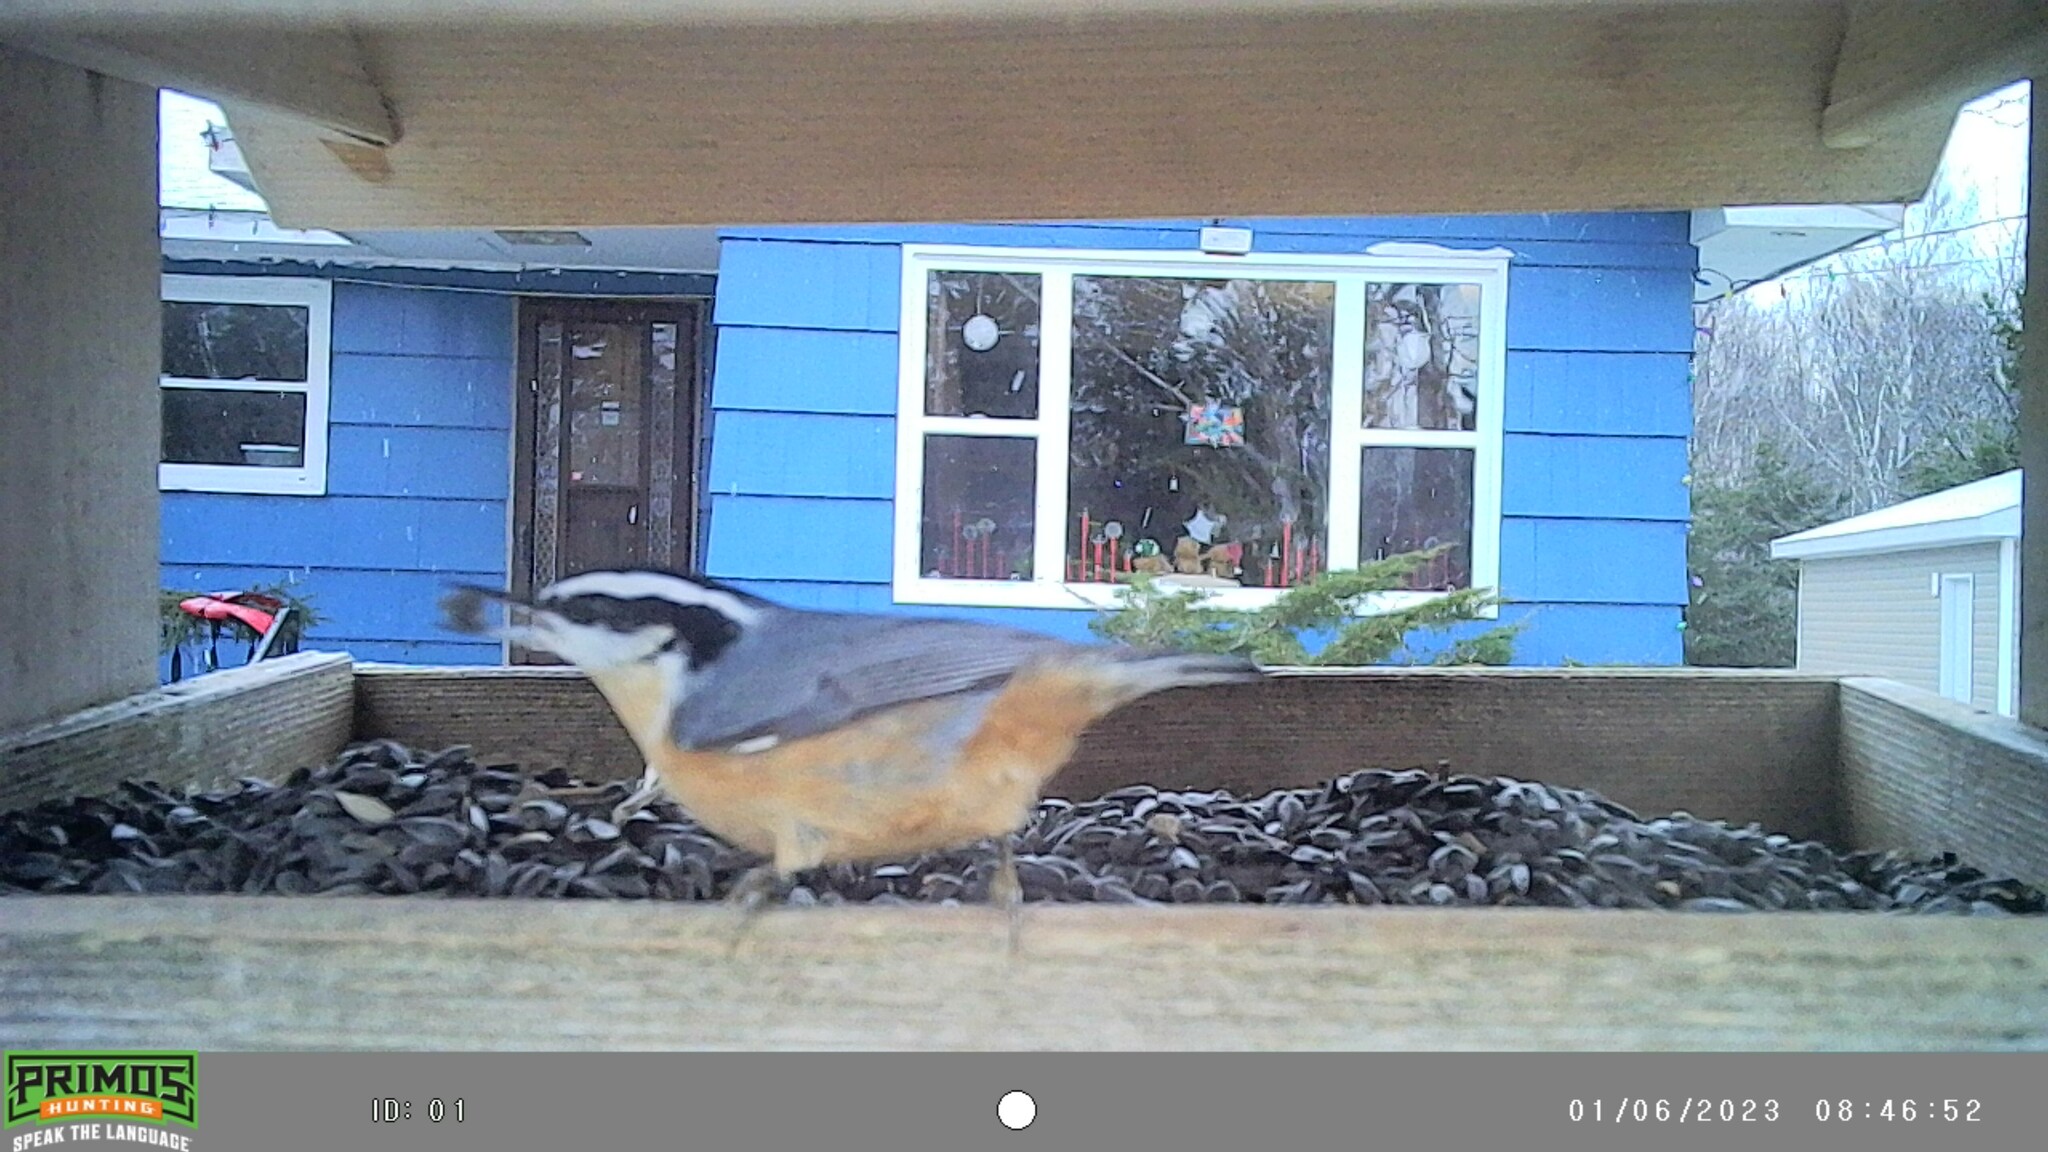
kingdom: Animalia
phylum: Chordata
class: Aves
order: Passeriformes
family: Sittidae
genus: Sitta
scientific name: Sitta canadensis
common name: Red-breasted nuthatch
